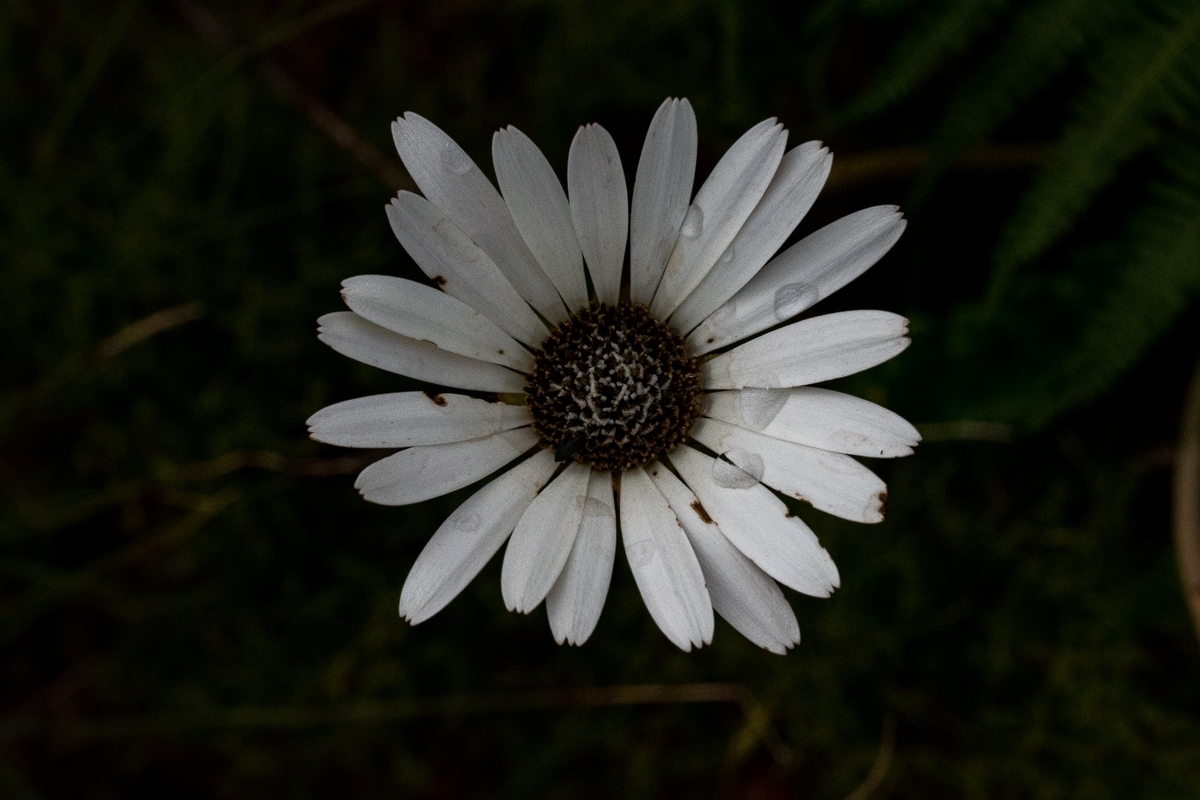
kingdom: Plantae
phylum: Tracheophyta
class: Magnoliopsida
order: Asterales
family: Asteraceae
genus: Gerbera
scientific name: Gerbera linnaei
